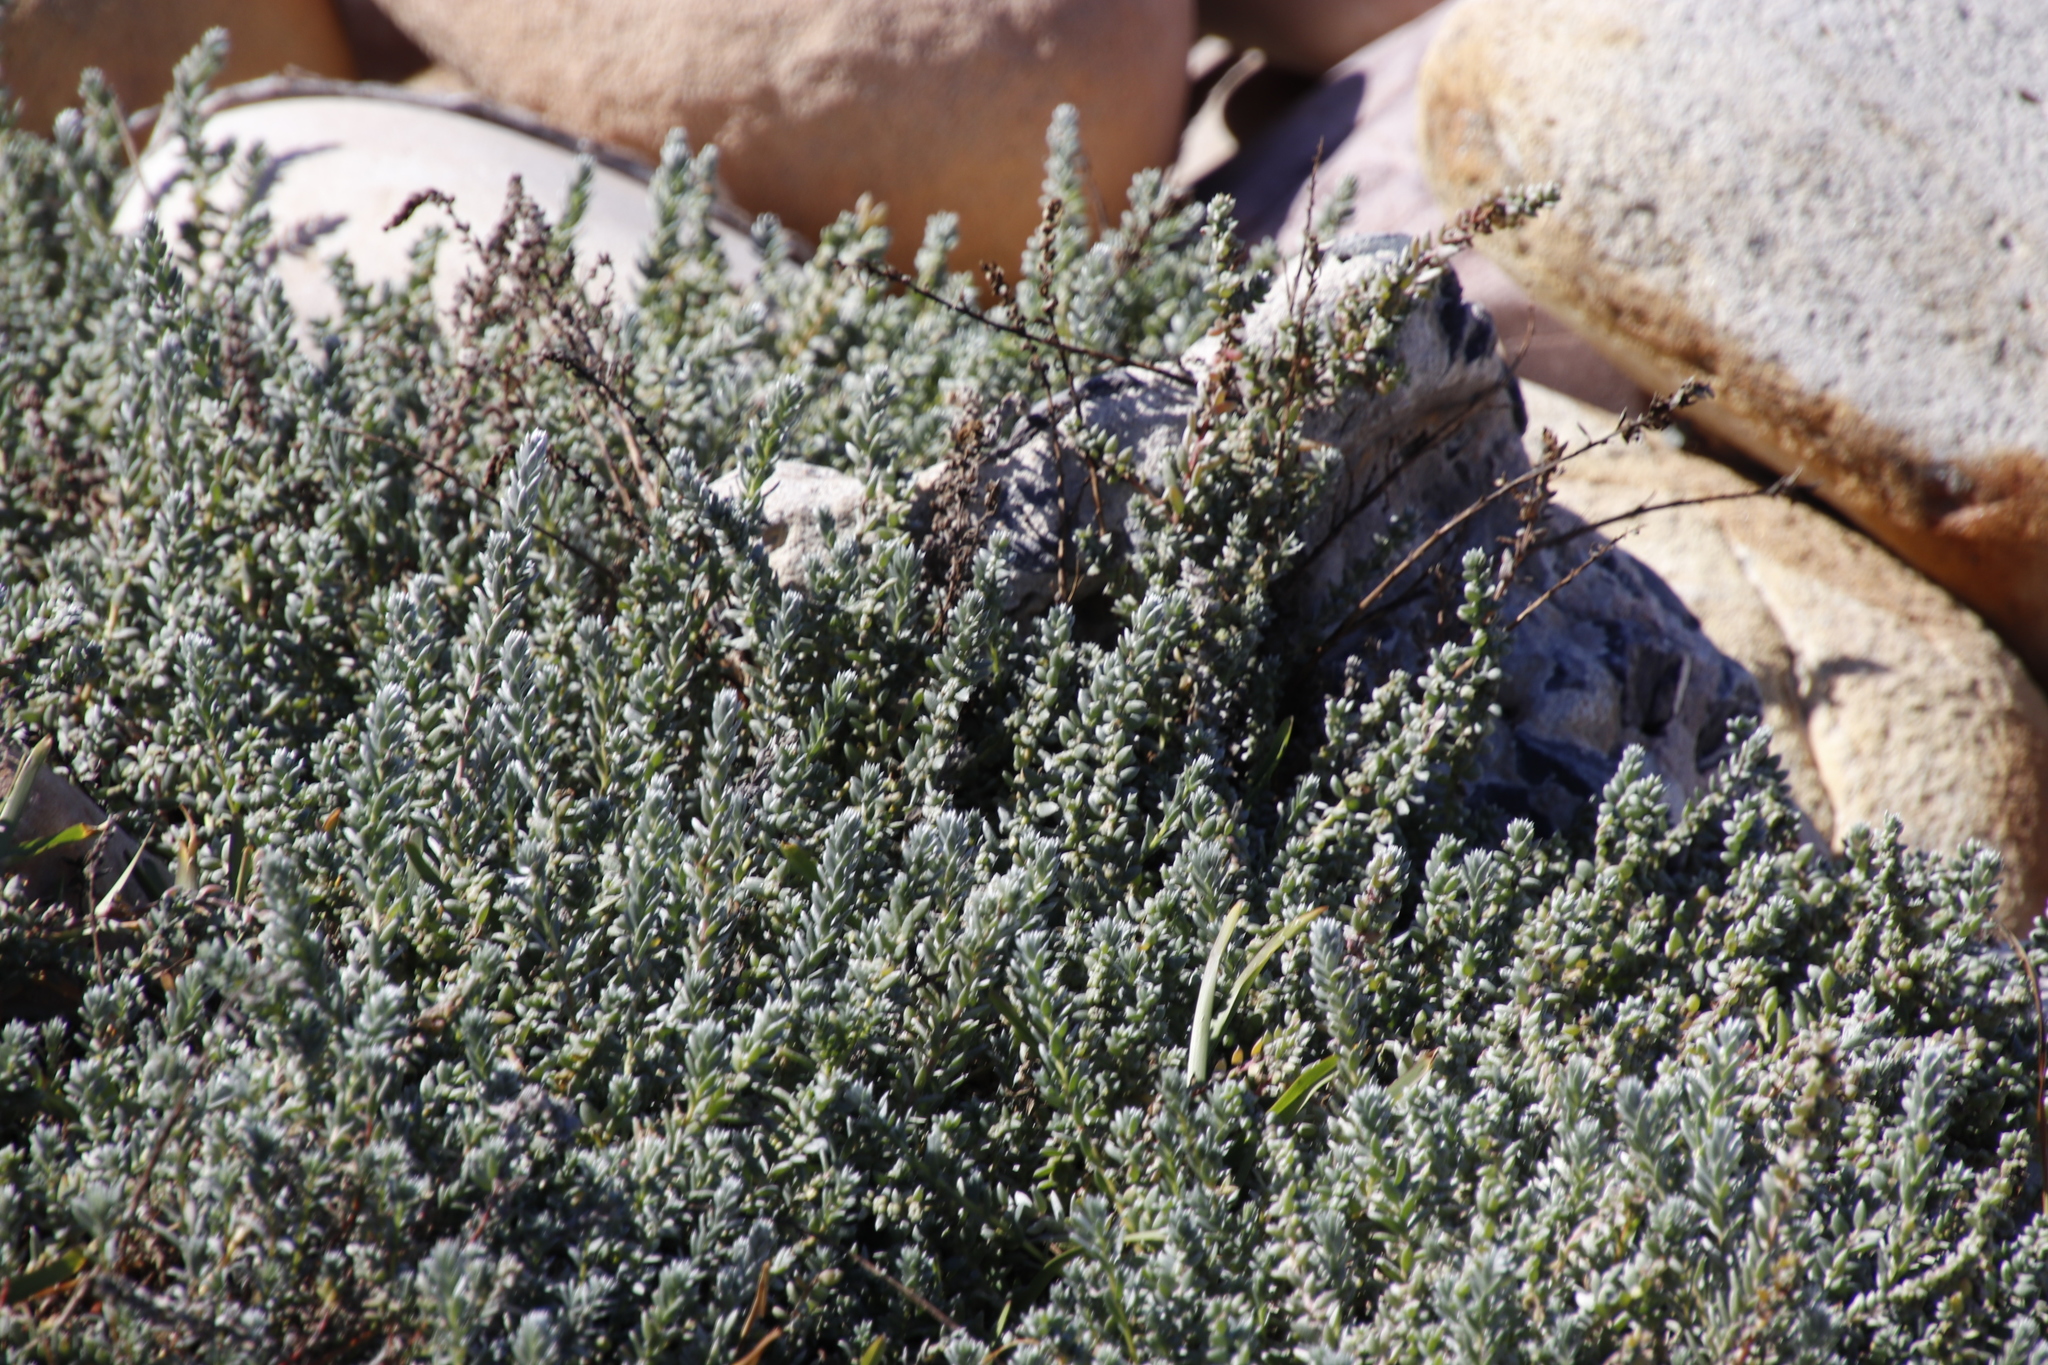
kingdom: Plantae
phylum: Tracheophyta
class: Magnoliopsida
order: Caryophyllales
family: Amaranthaceae
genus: Chenolea
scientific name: Chenolea diffusa
